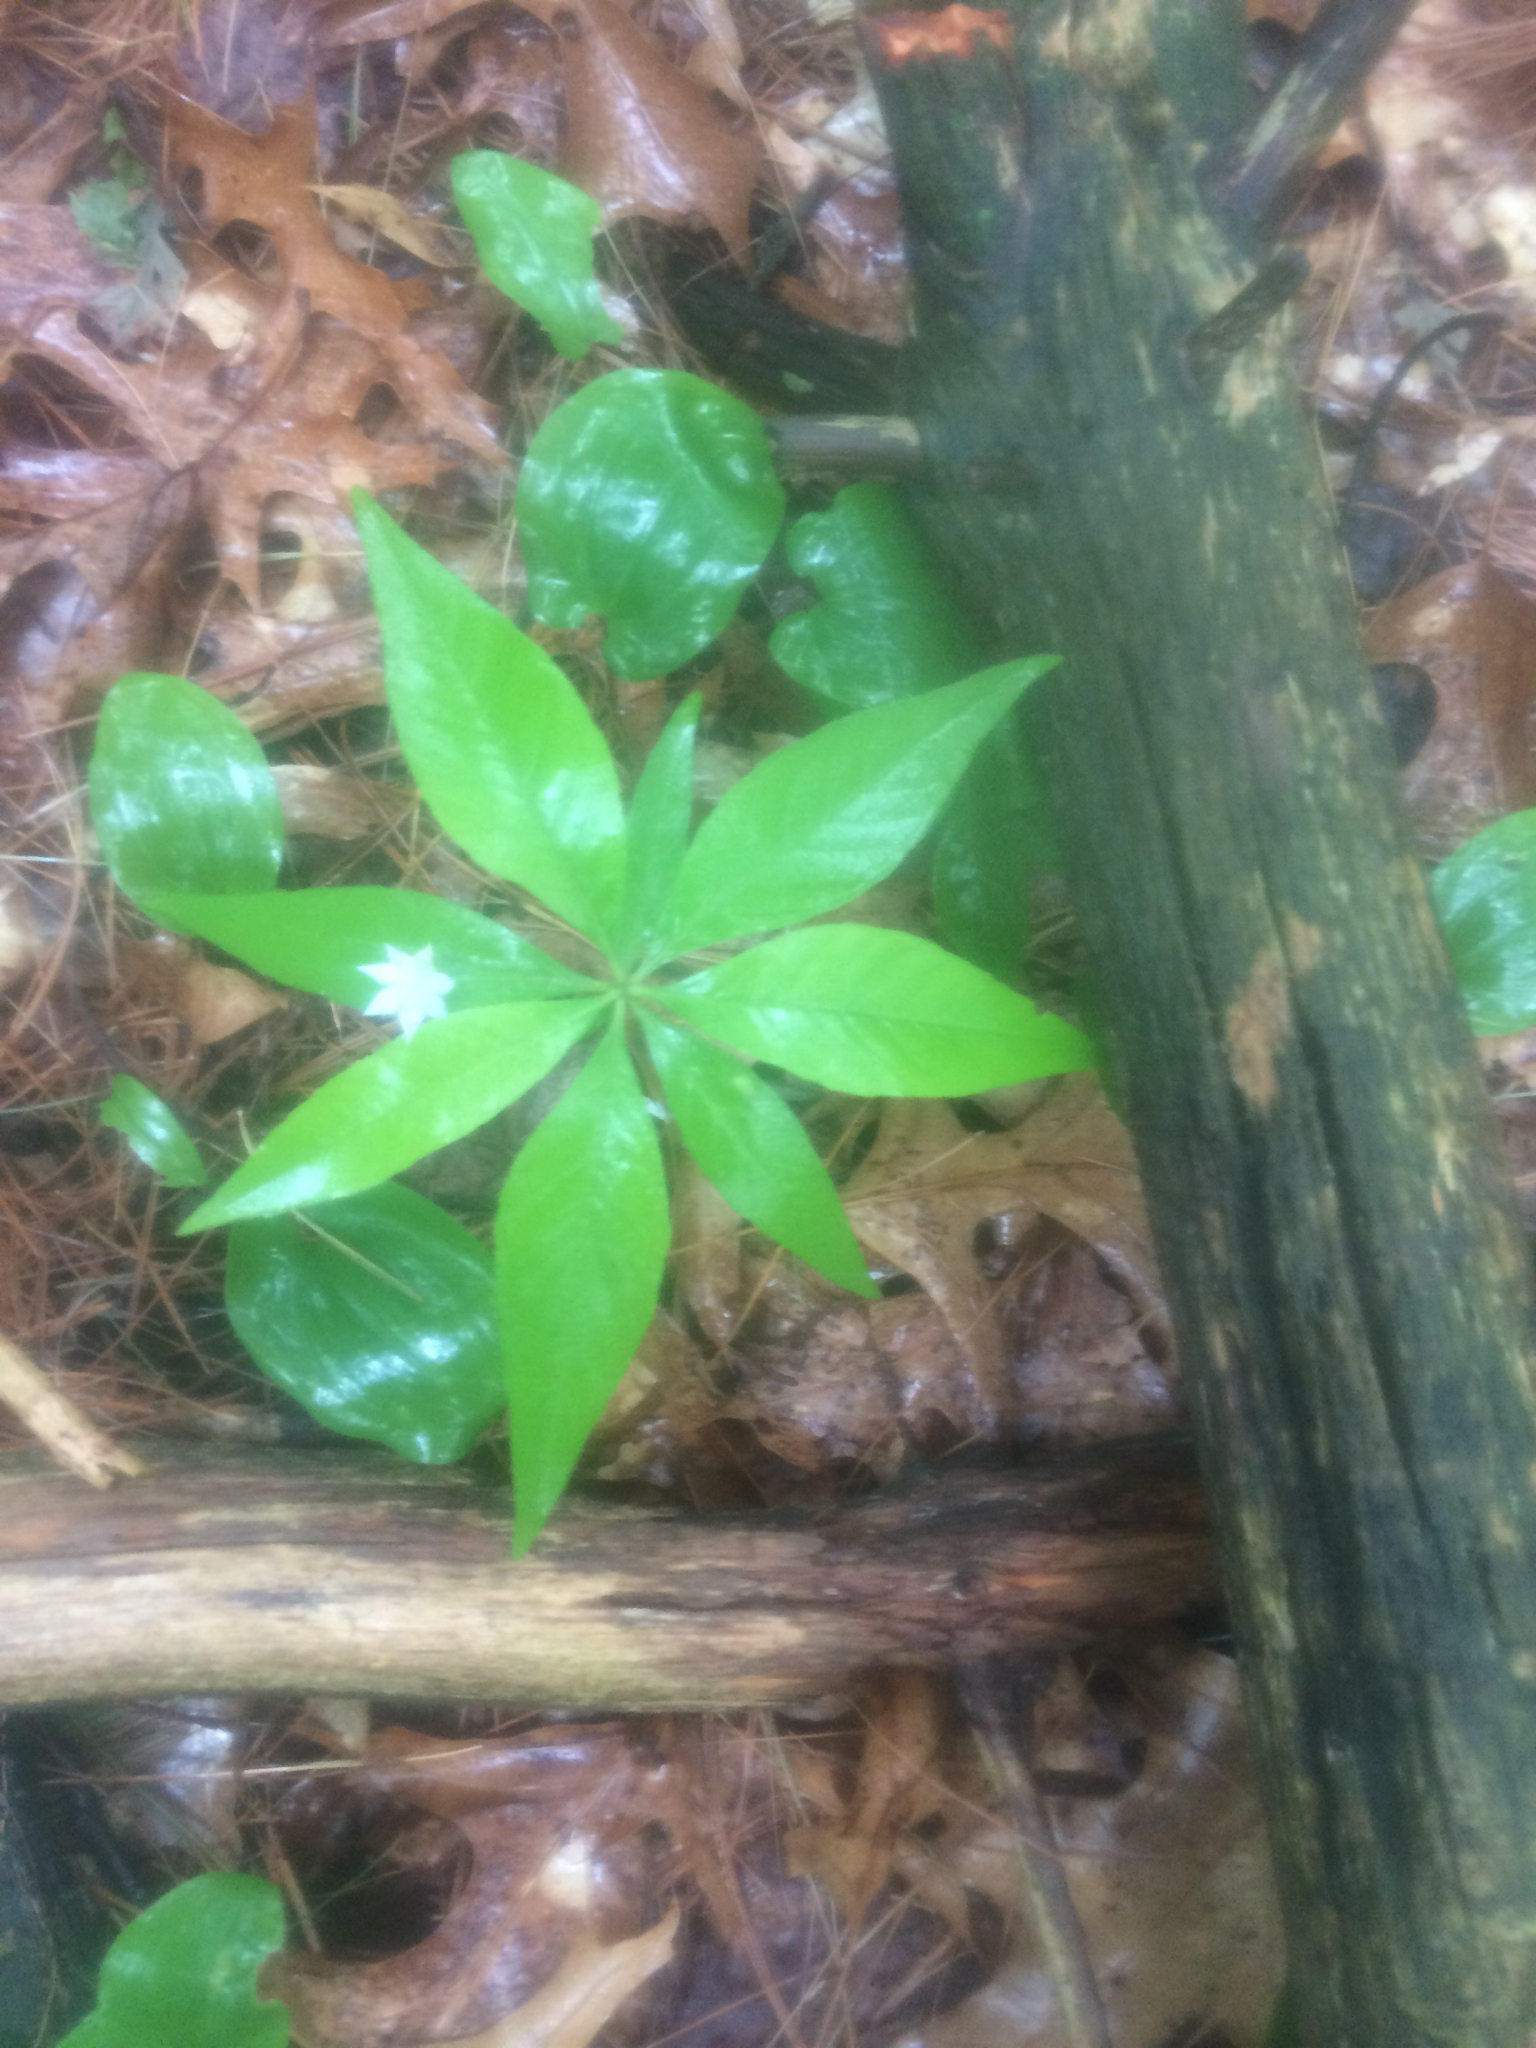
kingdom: Plantae
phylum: Tracheophyta
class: Magnoliopsida
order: Ericales
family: Primulaceae
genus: Lysimachia
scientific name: Lysimachia borealis
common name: American starflower
